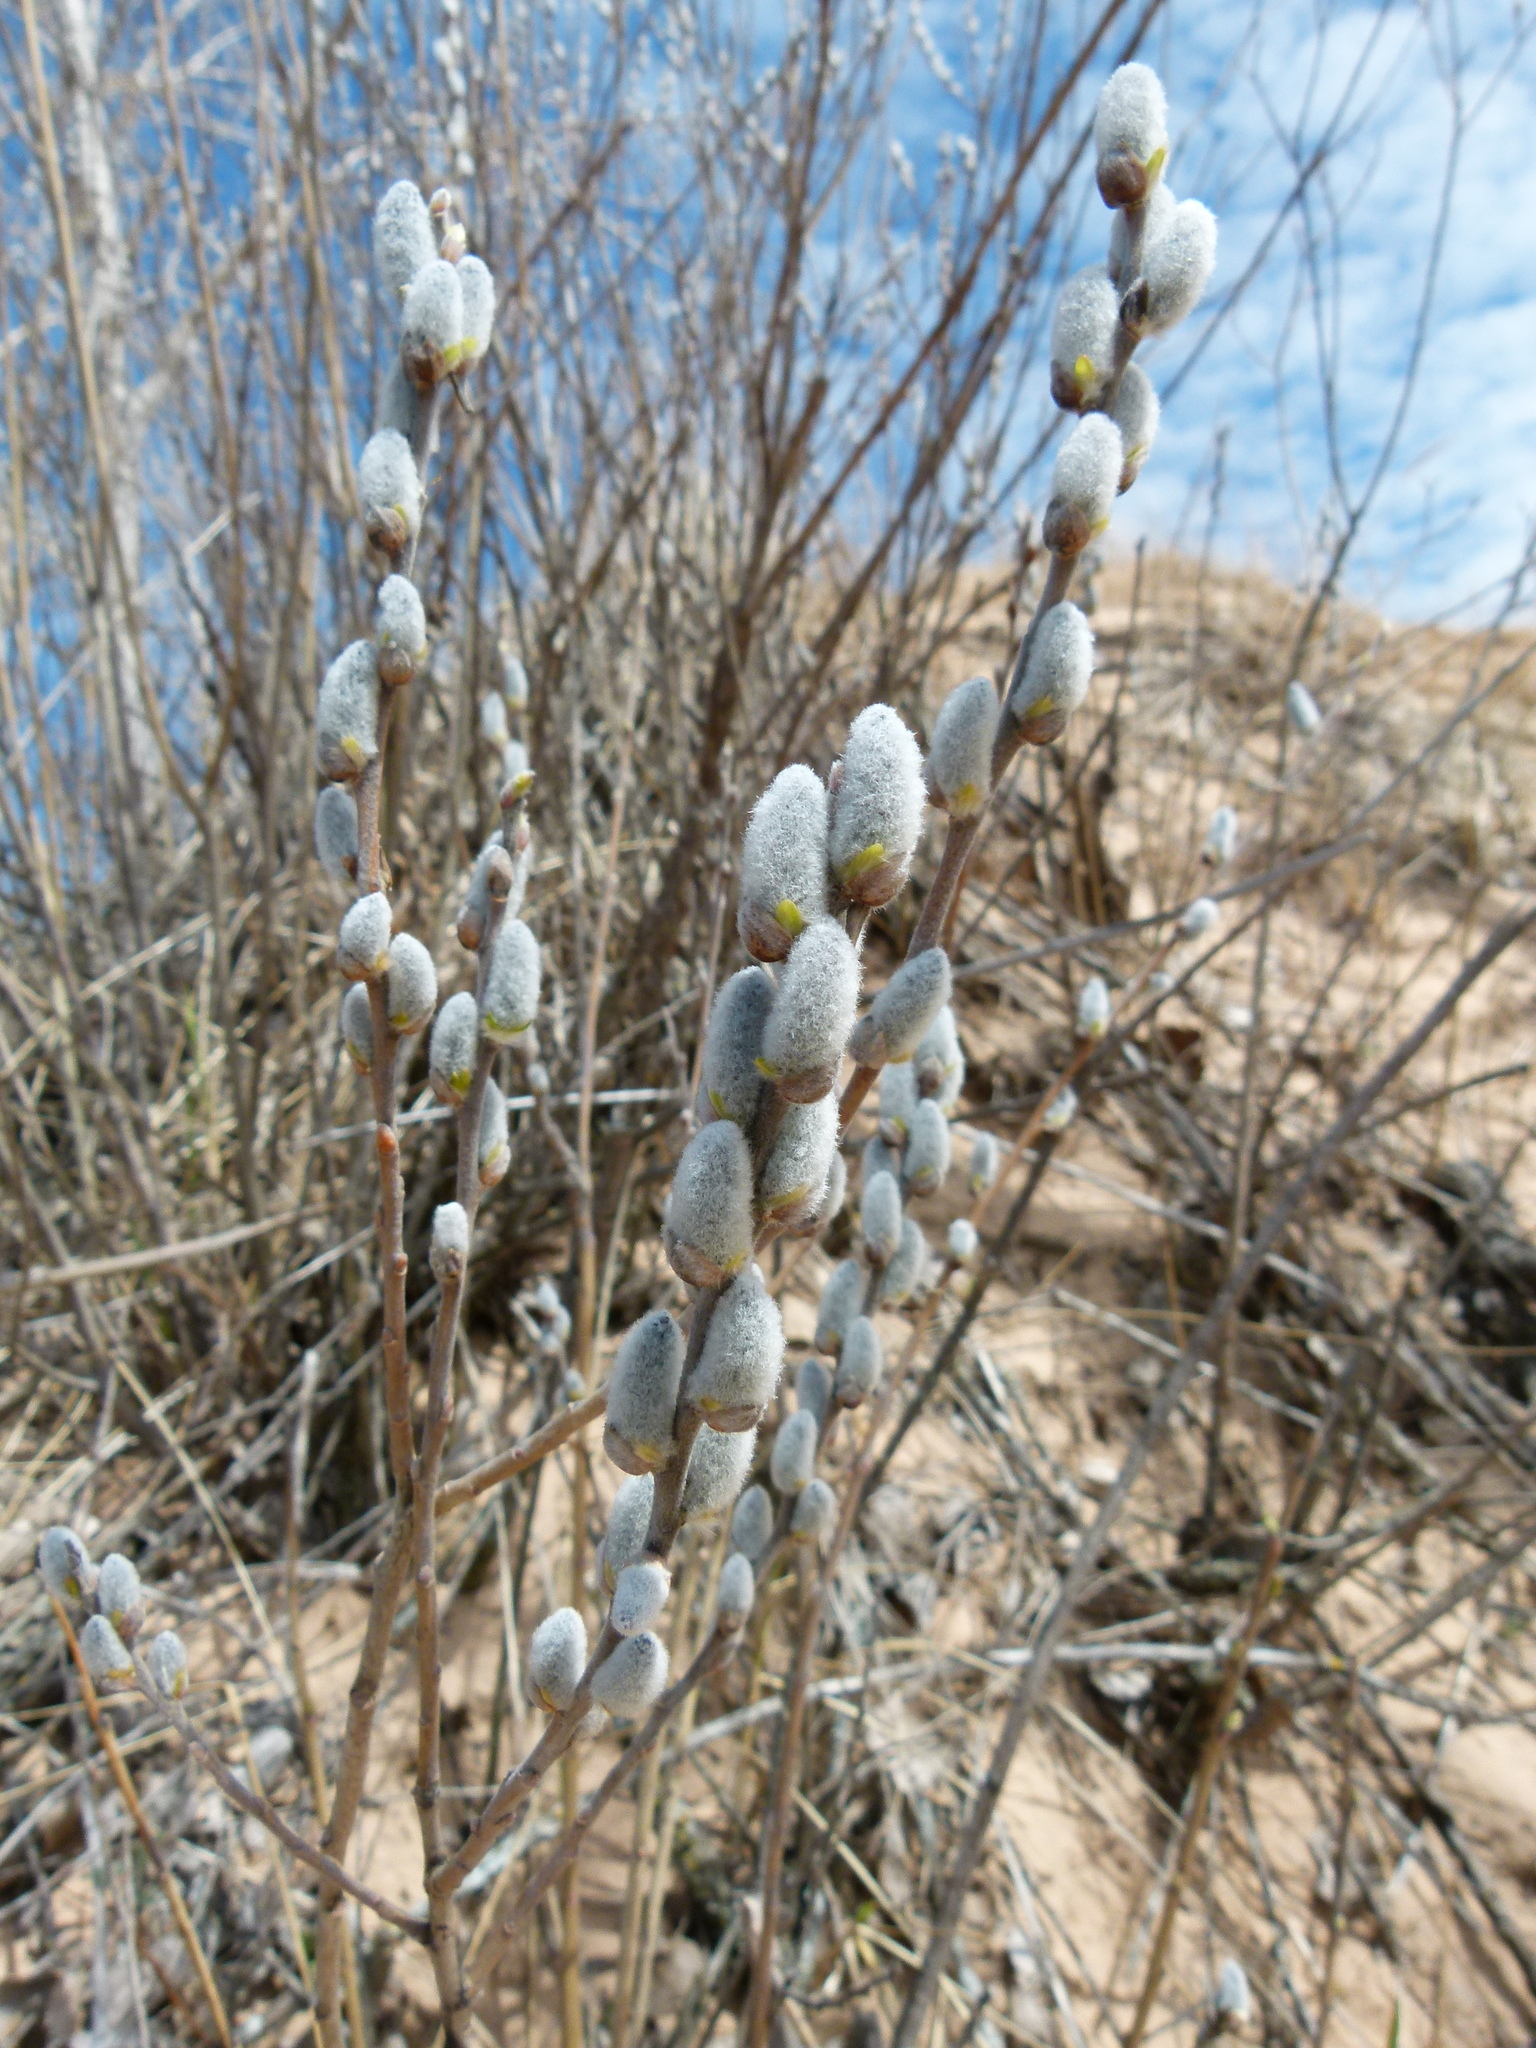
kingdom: Plantae
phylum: Tracheophyta
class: Magnoliopsida
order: Malpighiales
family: Salicaceae
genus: Salix
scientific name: Salix discolor
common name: Glaucous willow
